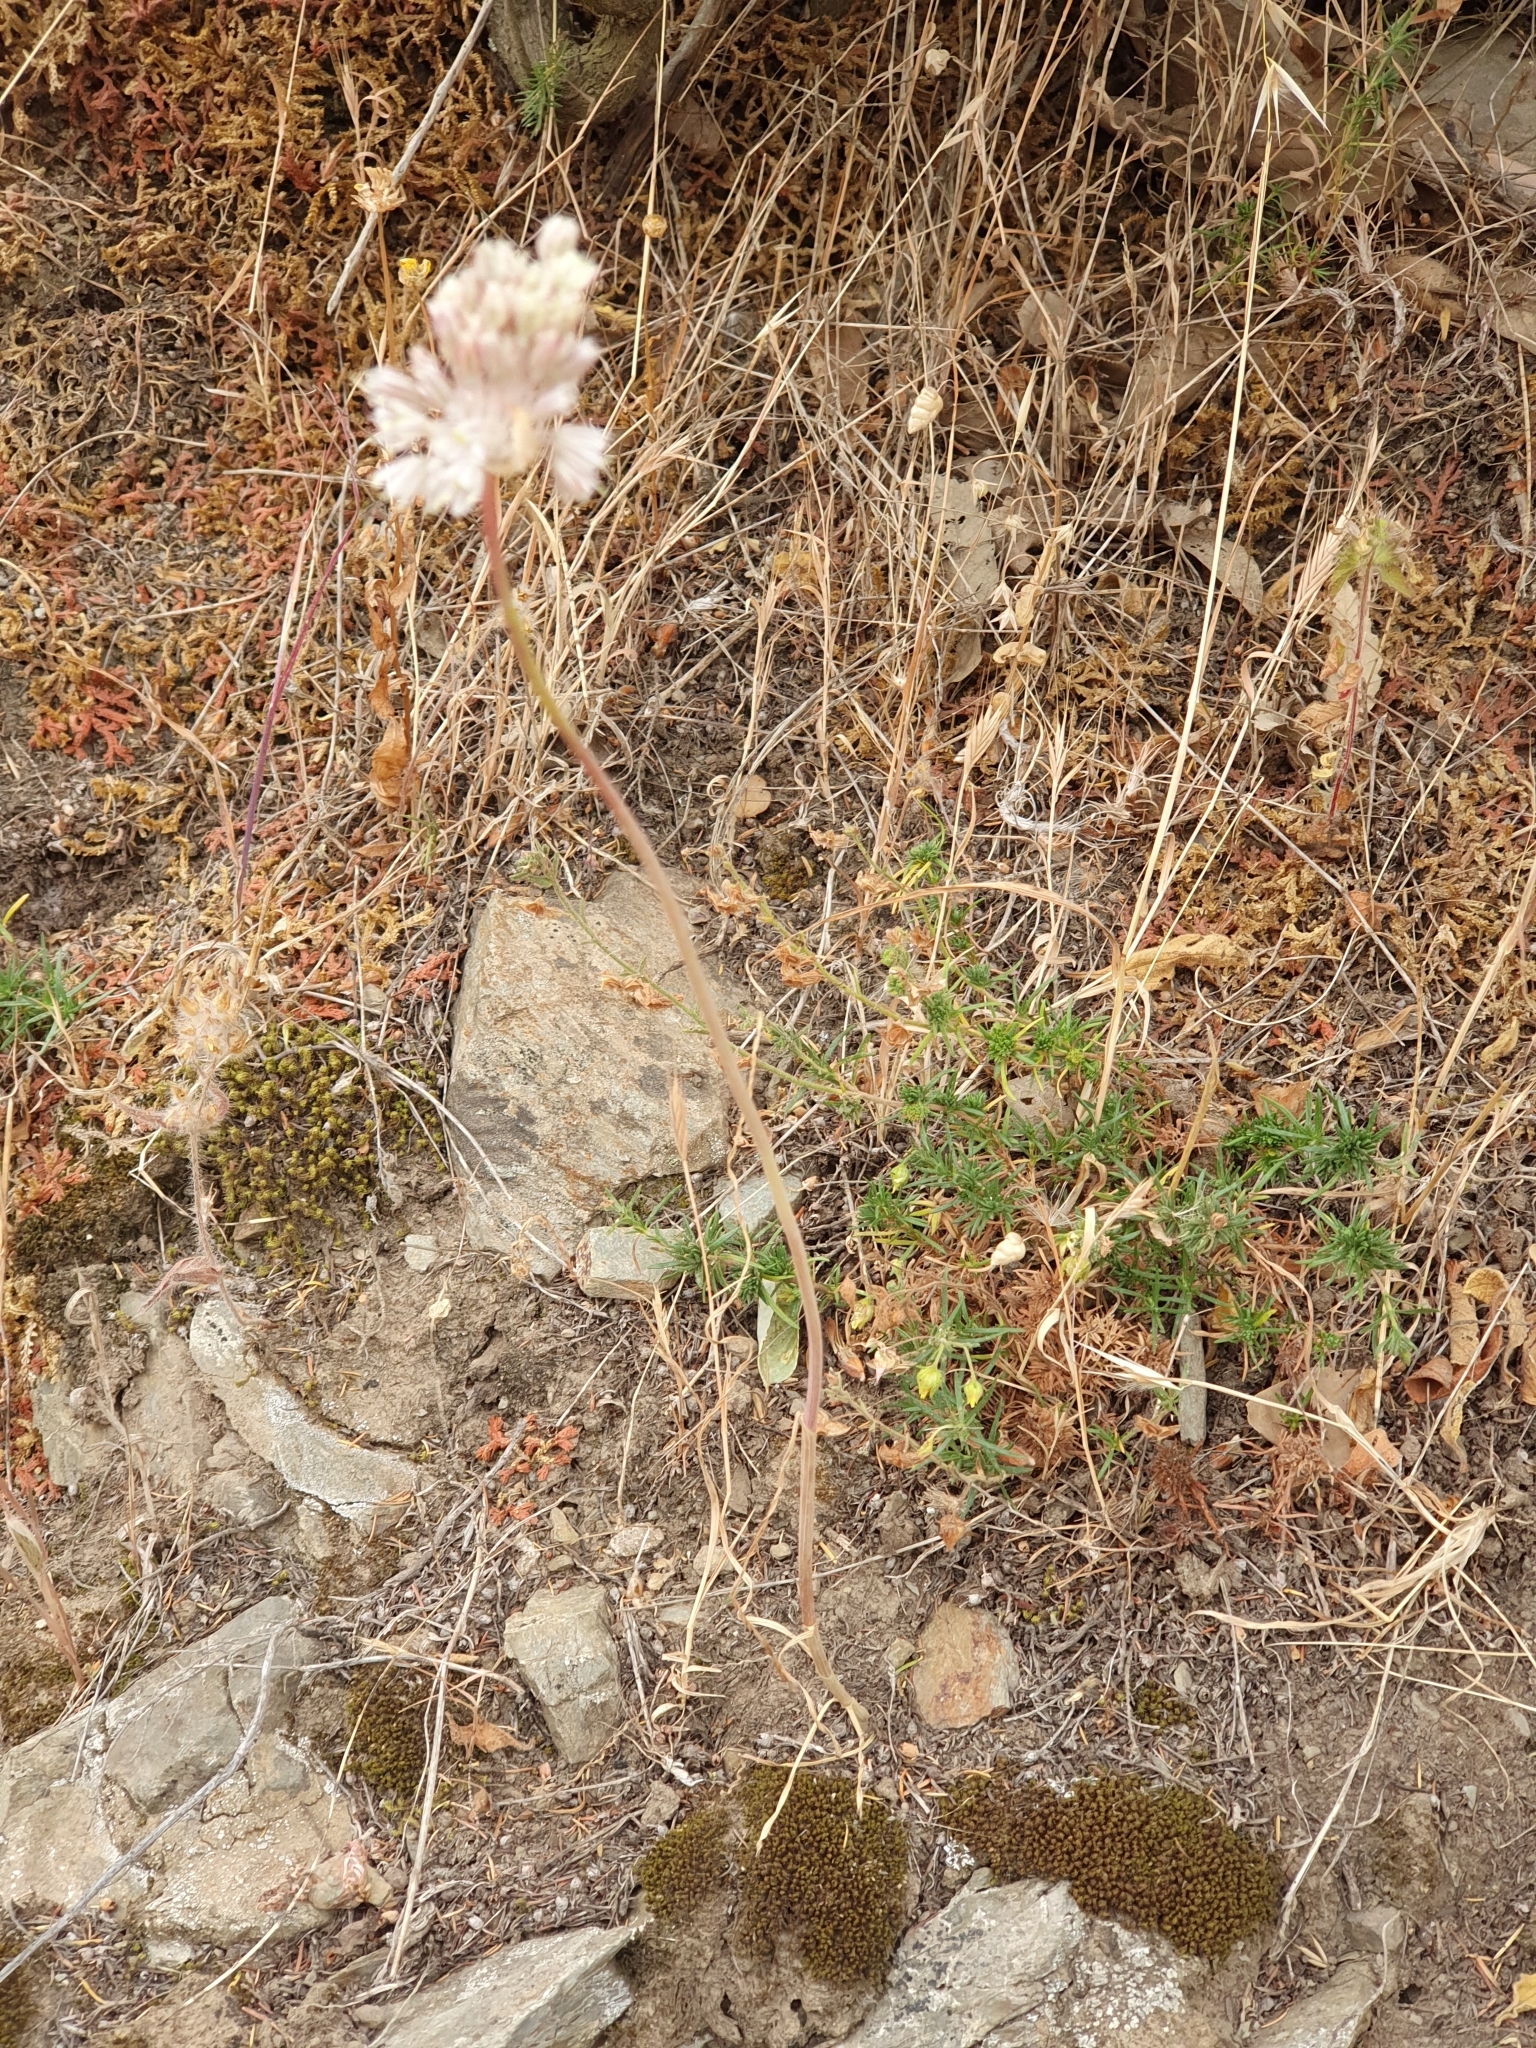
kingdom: Plantae
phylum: Tracheophyta
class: Liliopsida
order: Asparagales
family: Amaryllidaceae
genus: Allium
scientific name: Allium antiatlanticum
